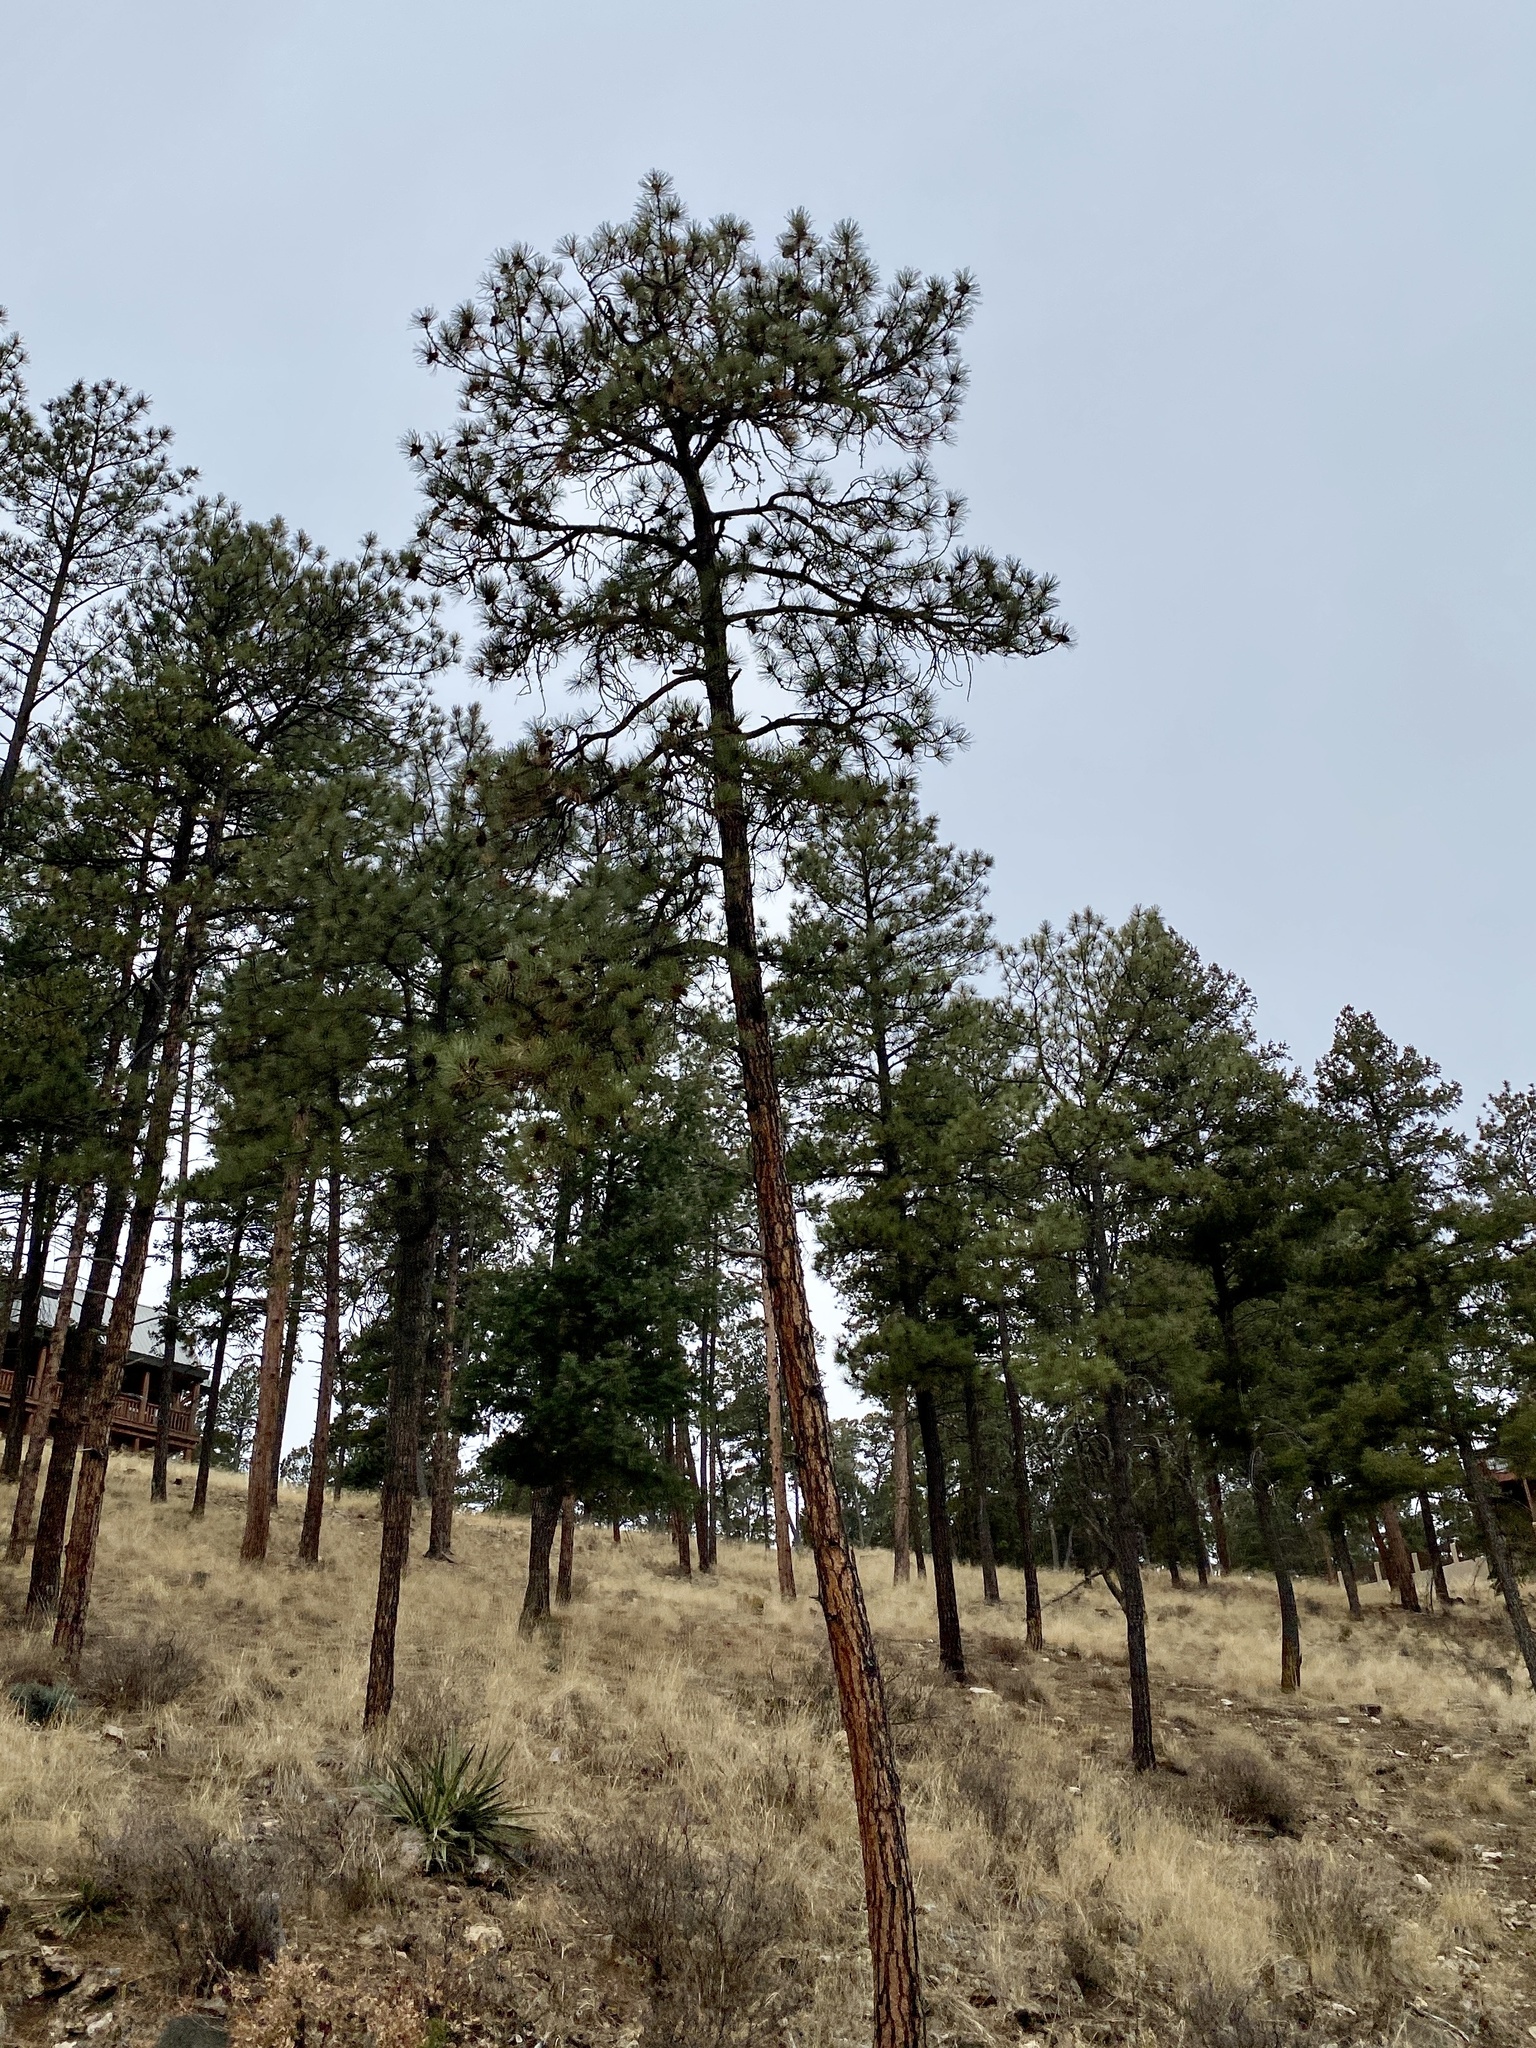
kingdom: Plantae
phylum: Tracheophyta
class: Pinopsida
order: Pinales
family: Pinaceae
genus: Pinus
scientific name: Pinus ponderosa
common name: Western yellow-pine
